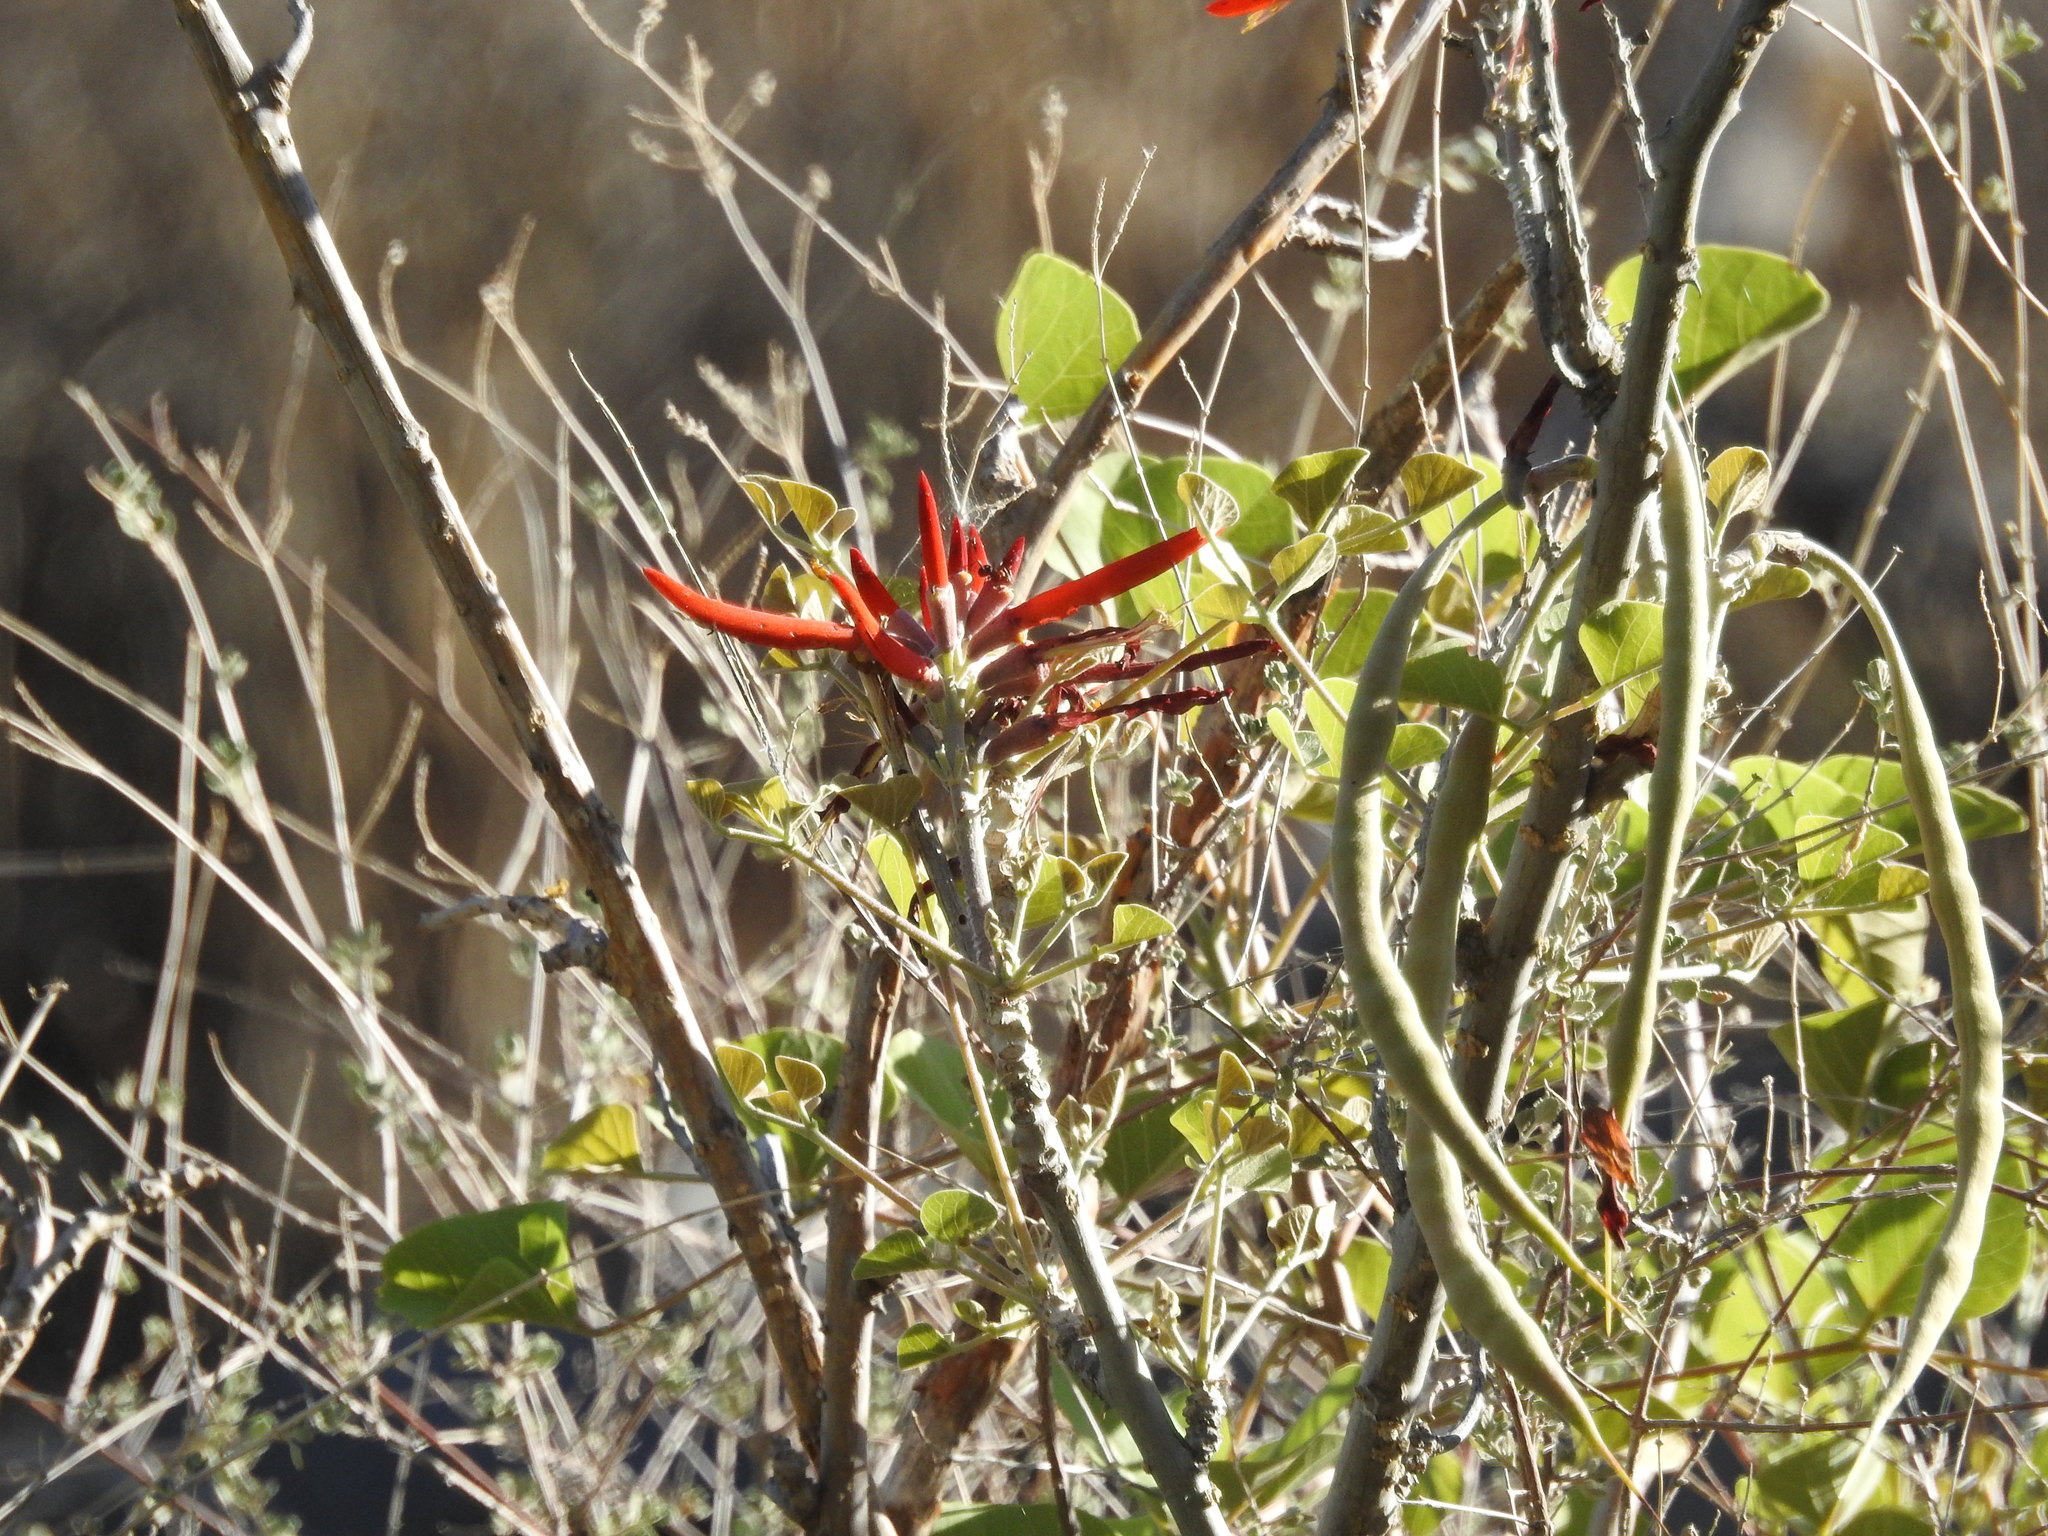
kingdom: Plantae
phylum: Tracheophyta
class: Magnoliopsida
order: Fabales
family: Fabaceae
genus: Erythrina
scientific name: Erythrina flabelliformis
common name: Chilicote
